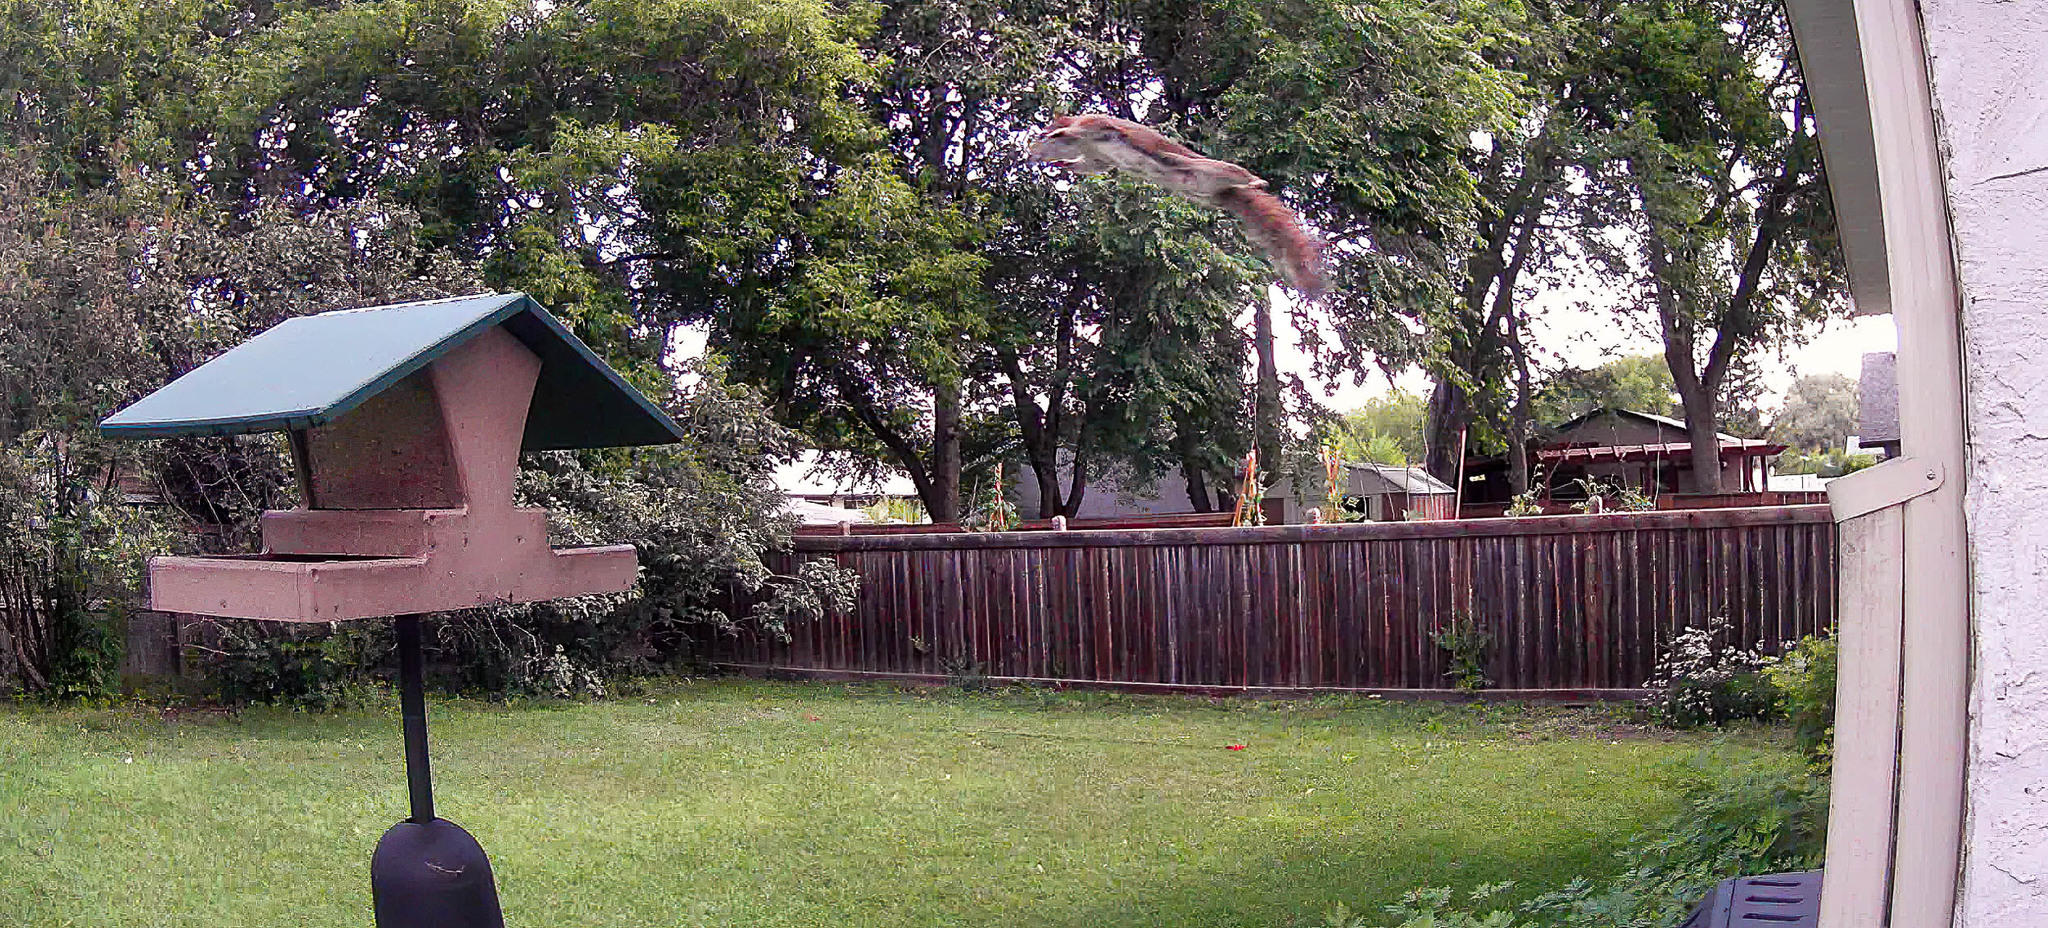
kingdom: Animalia
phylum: Chordata
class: Mammalia
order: Rodentia
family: Sciuridae
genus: Tamiasciurus
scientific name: Tamiasciurus hudsonicus
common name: Red squirrel
